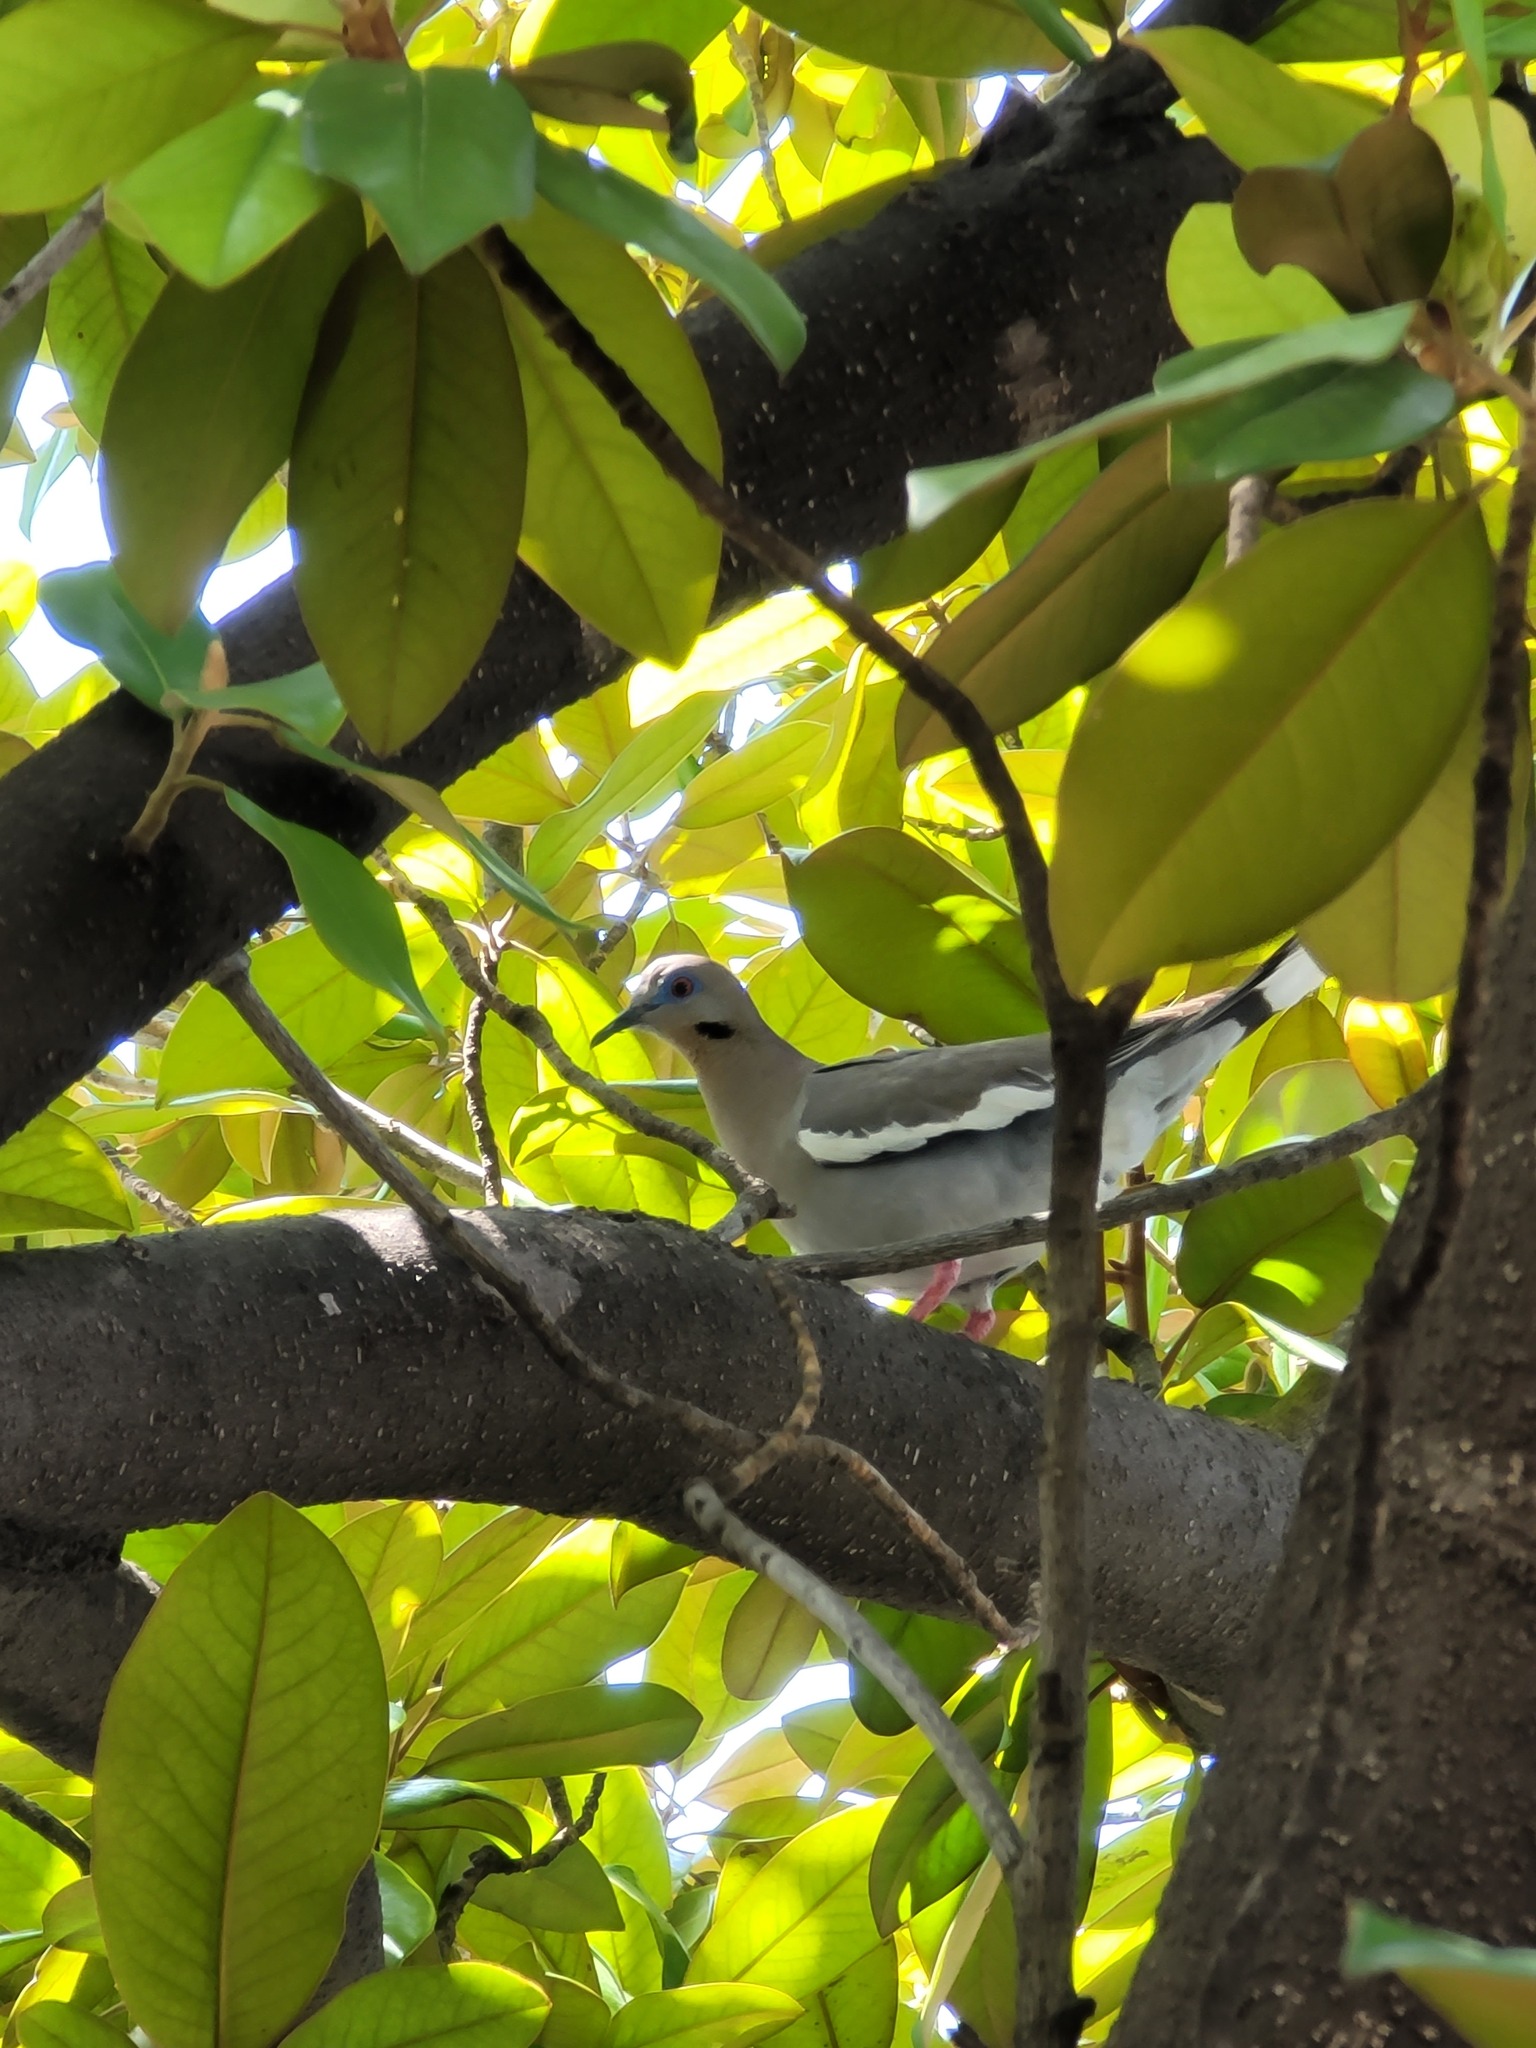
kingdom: Animalia
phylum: Chordata
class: Aves
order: Columbiformes
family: Columbidae
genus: Zenaida
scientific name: Zenaida asiatica
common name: White-winged dove
